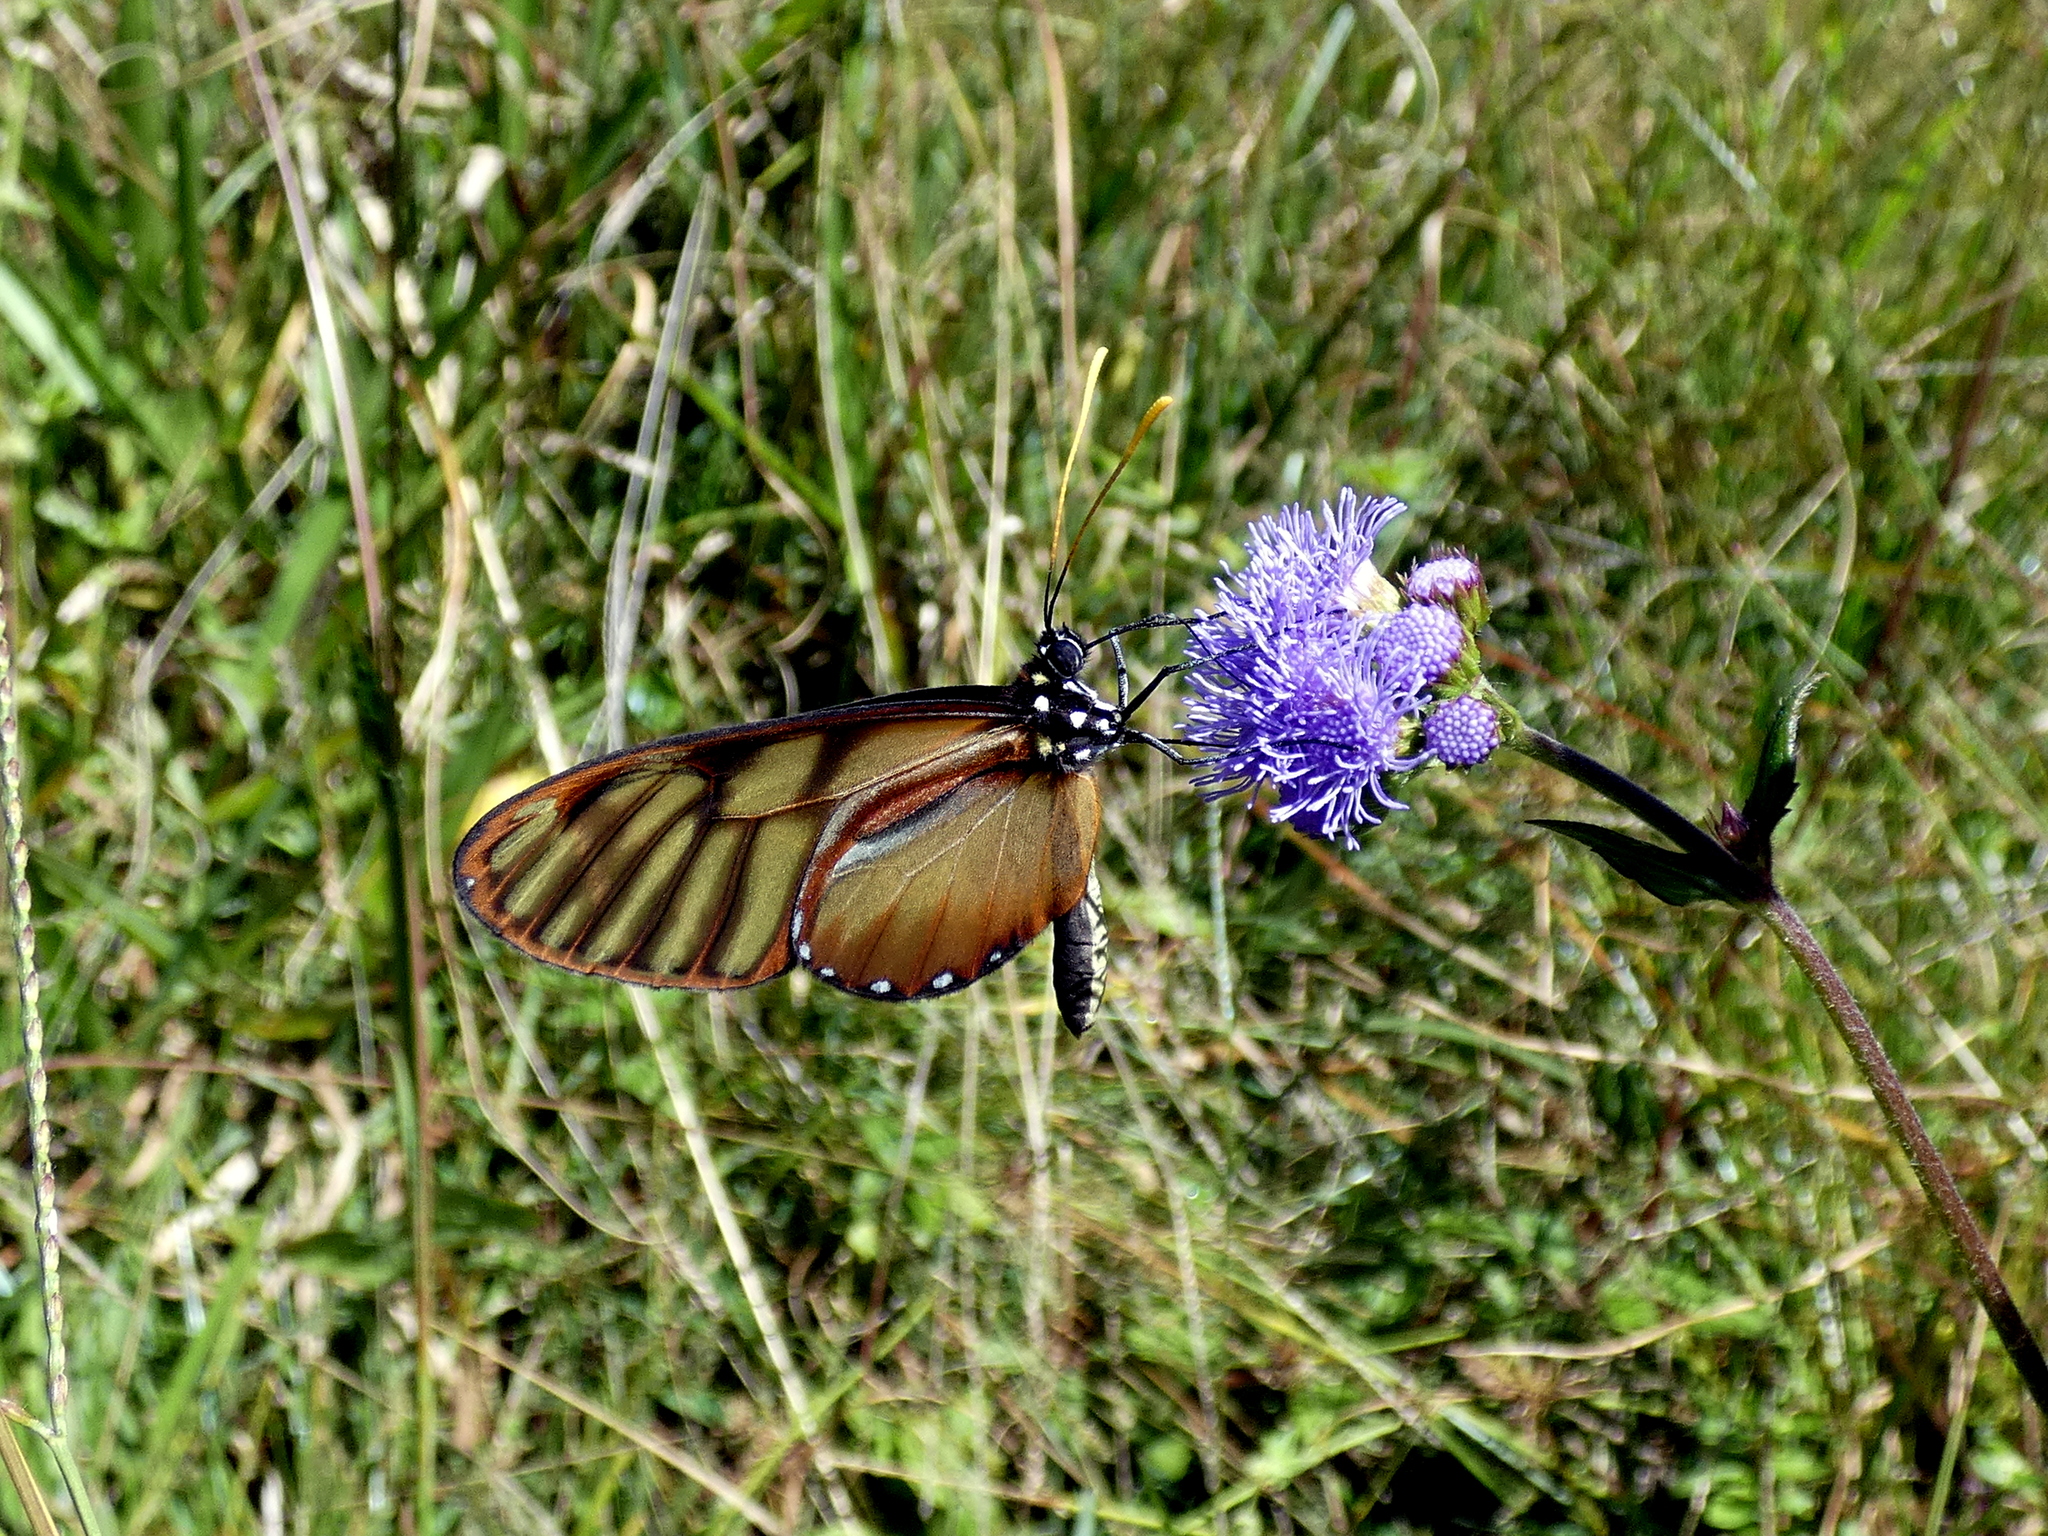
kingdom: Animalia
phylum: Arthropoda
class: Insecta
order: Lepidoptera
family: Nymphalidae
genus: Ithomia
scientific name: Ithomia xenos
